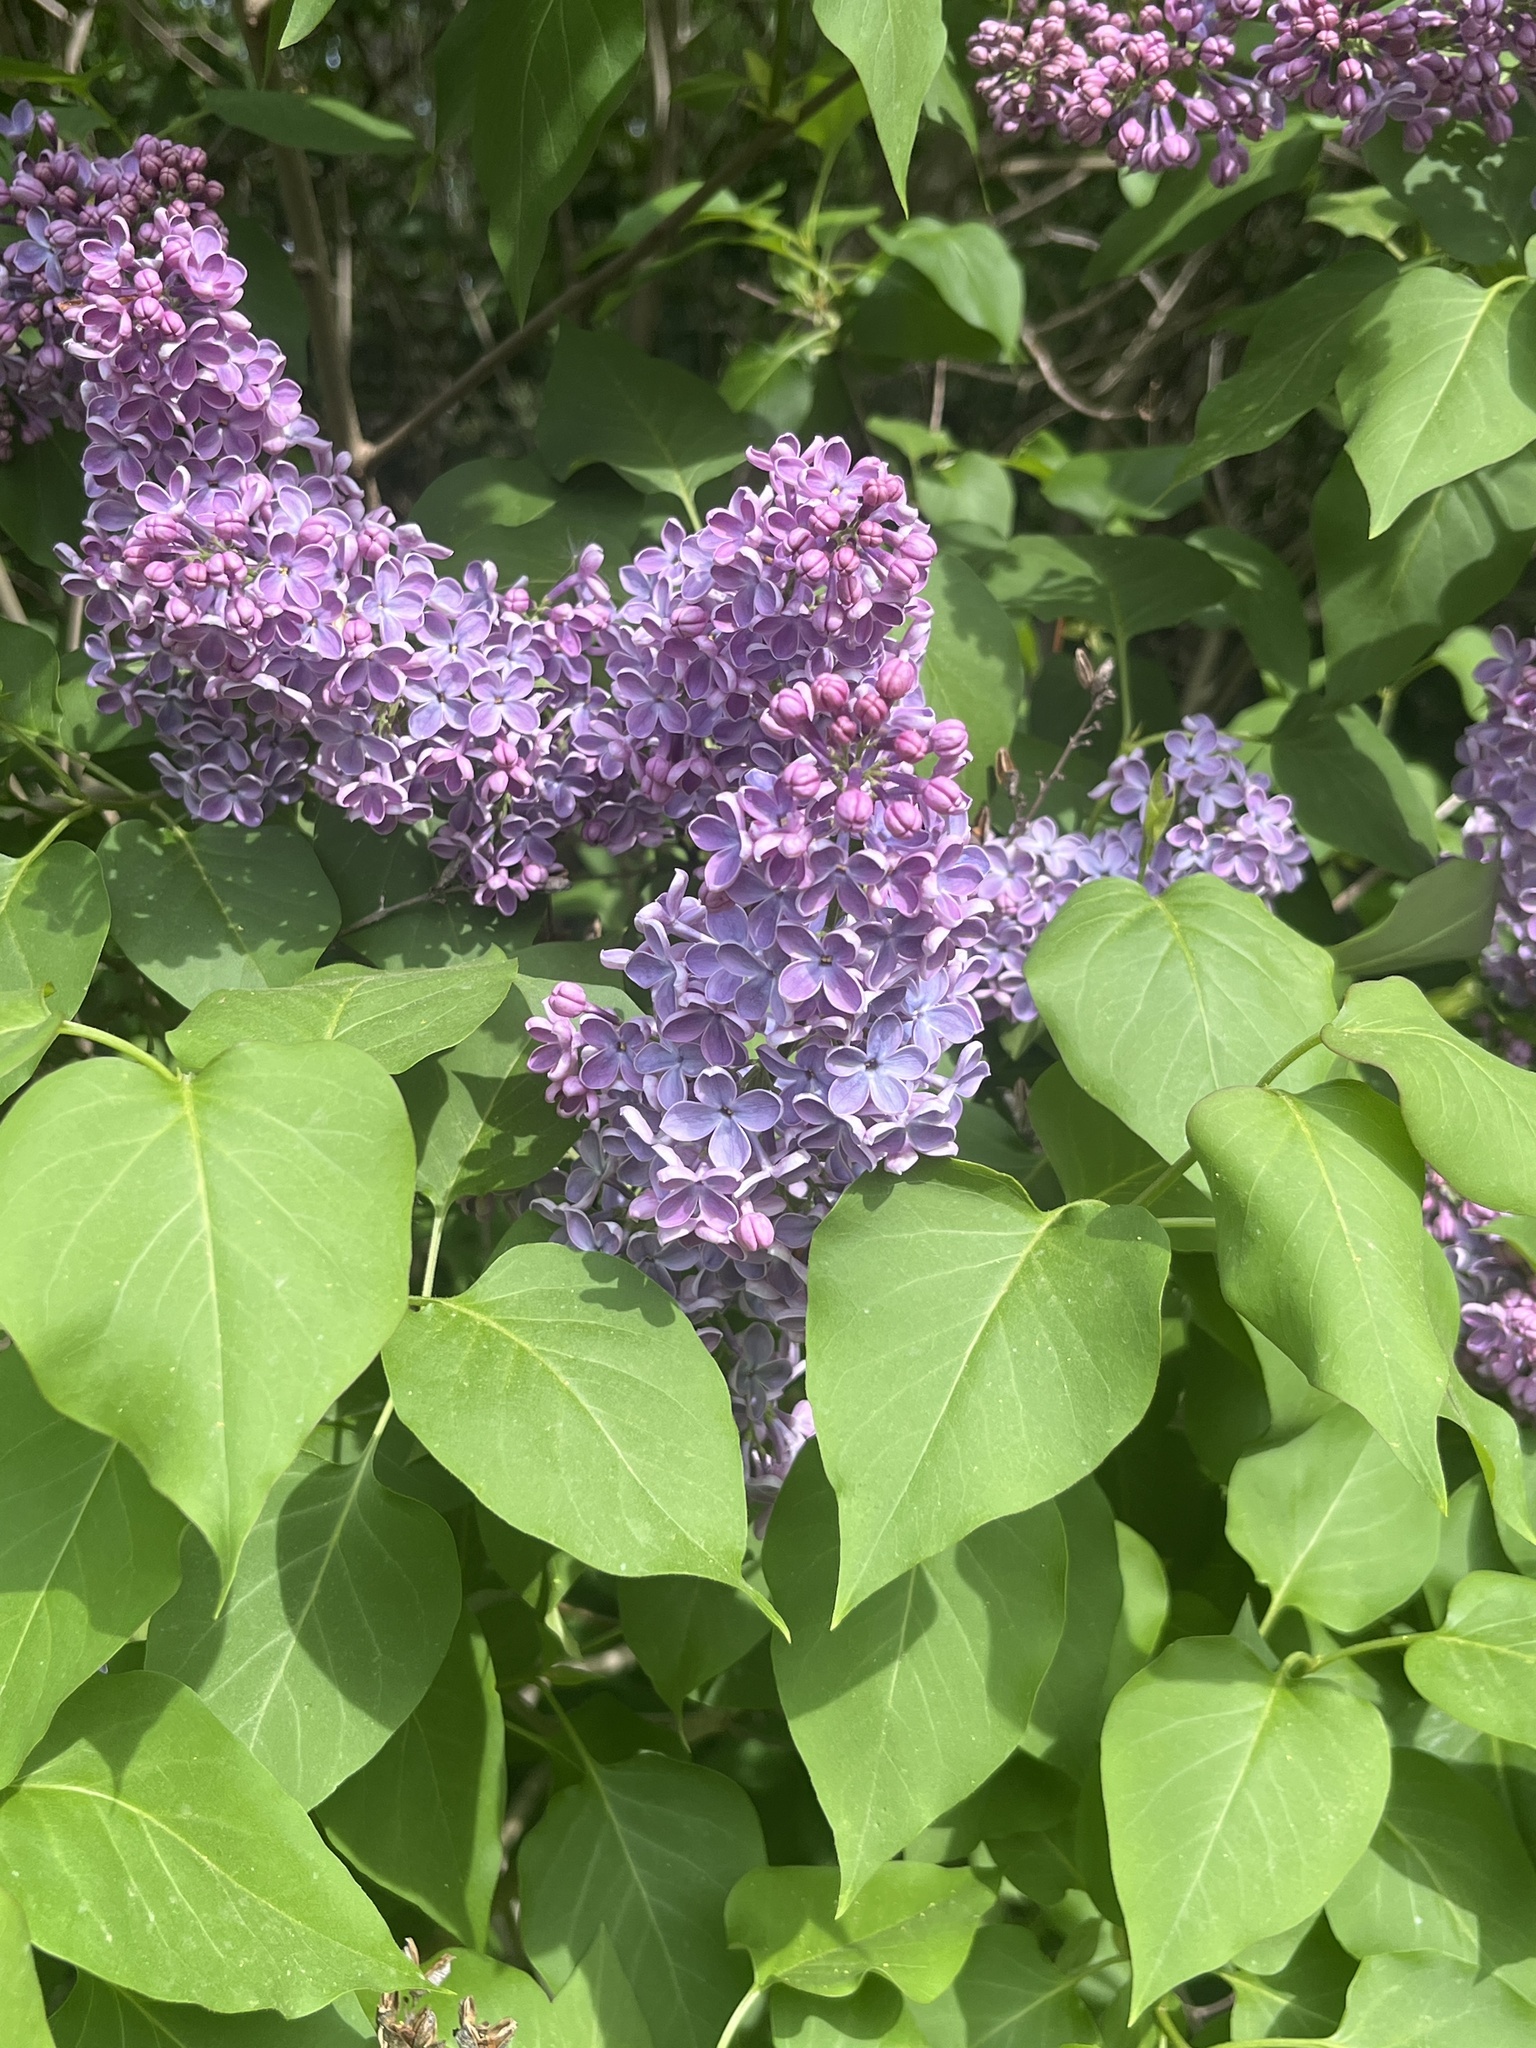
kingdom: Plantae
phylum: Tracheophyta
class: Magnoliopsida
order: Lamiales
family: Oleaceae
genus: Syringa
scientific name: Syringa vulgaris
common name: Common lilac
